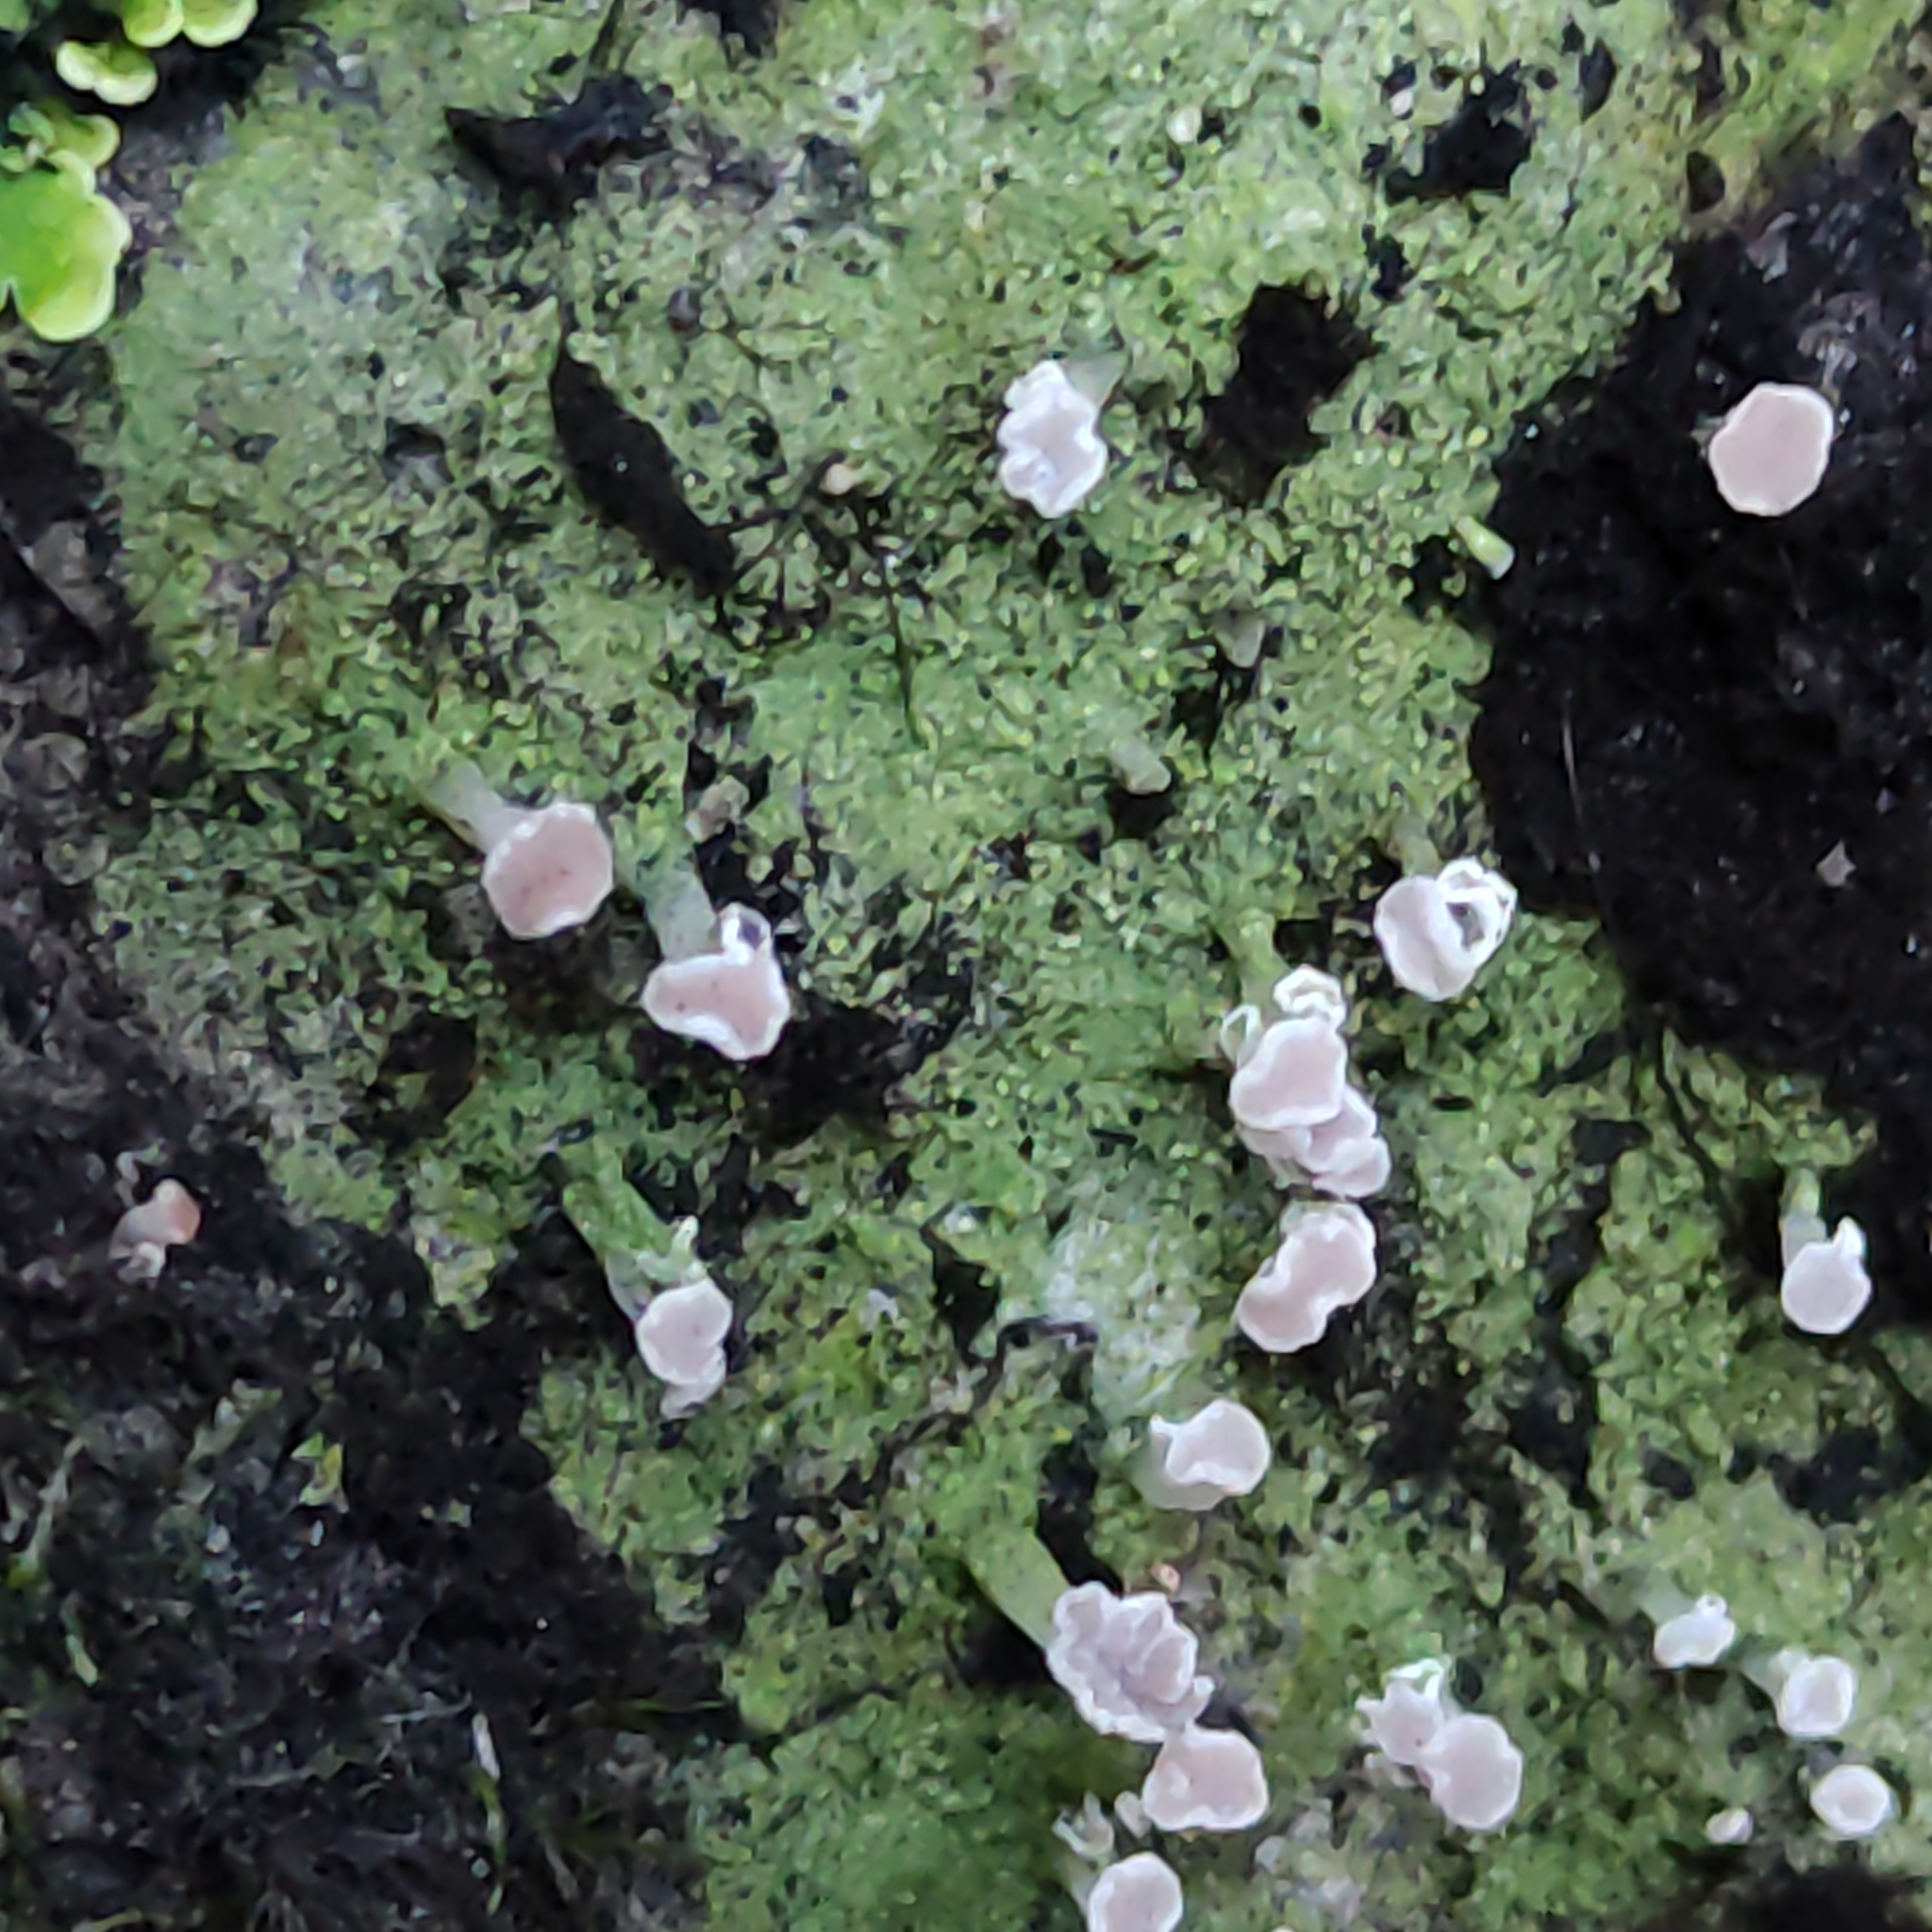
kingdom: Fungi
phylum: Ascomycota
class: Lecanoromycetes
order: Baeomycetales
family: Baeomycetaceae
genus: Baeomyces
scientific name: Baeomyces heteromorphus
